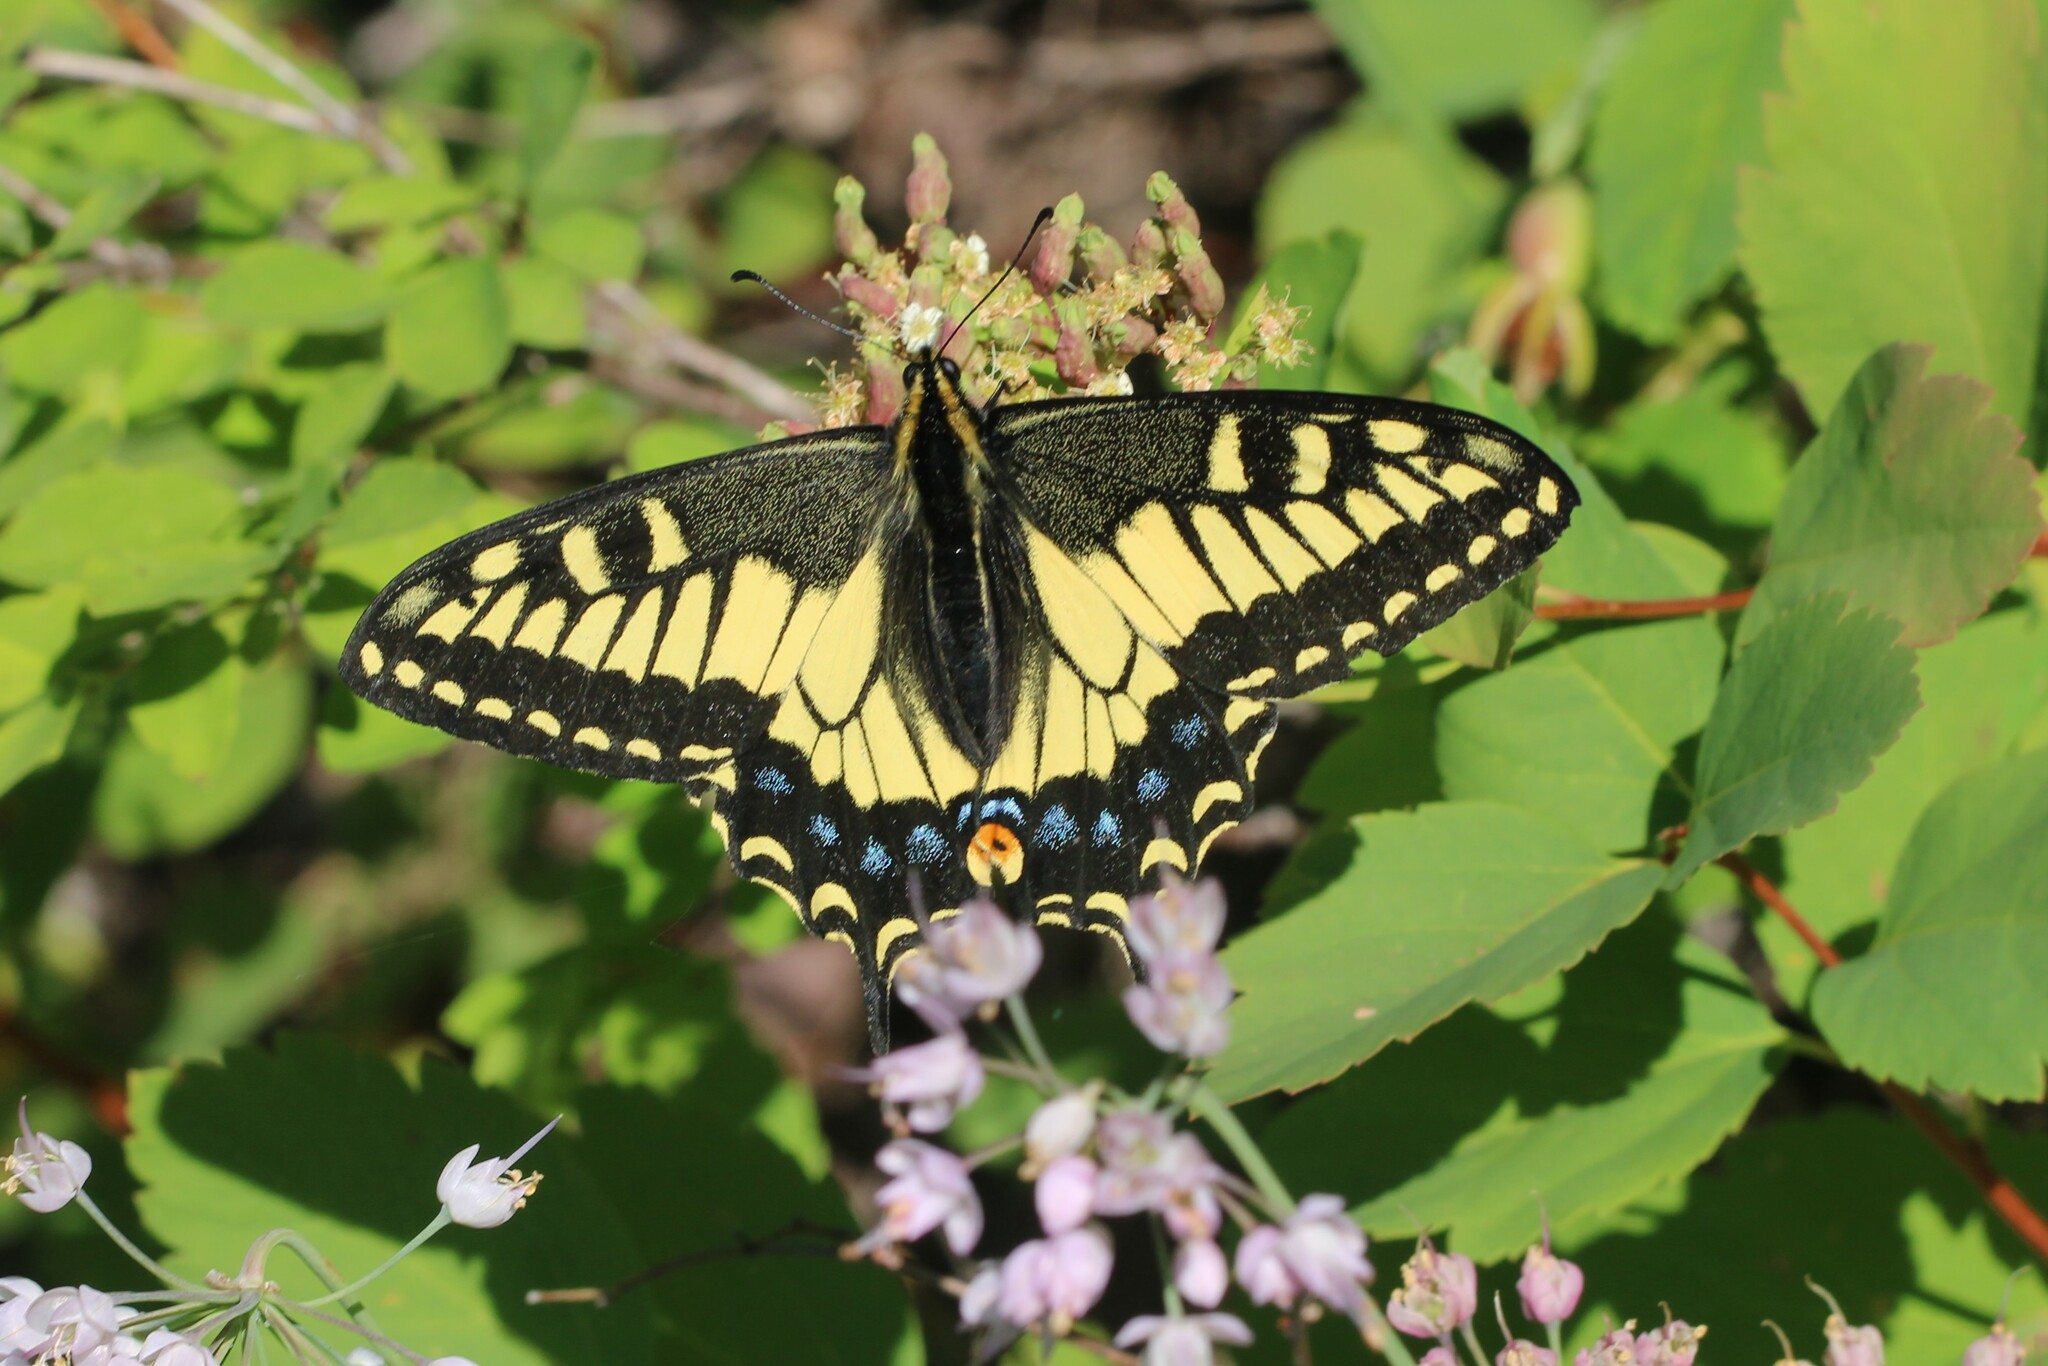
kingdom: Animalia
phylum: Arthropoda
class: Insecta
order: Lepidoptera
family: Papilionidae
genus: Papilio
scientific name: Papilio zelicaon
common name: Anise swallowtail
